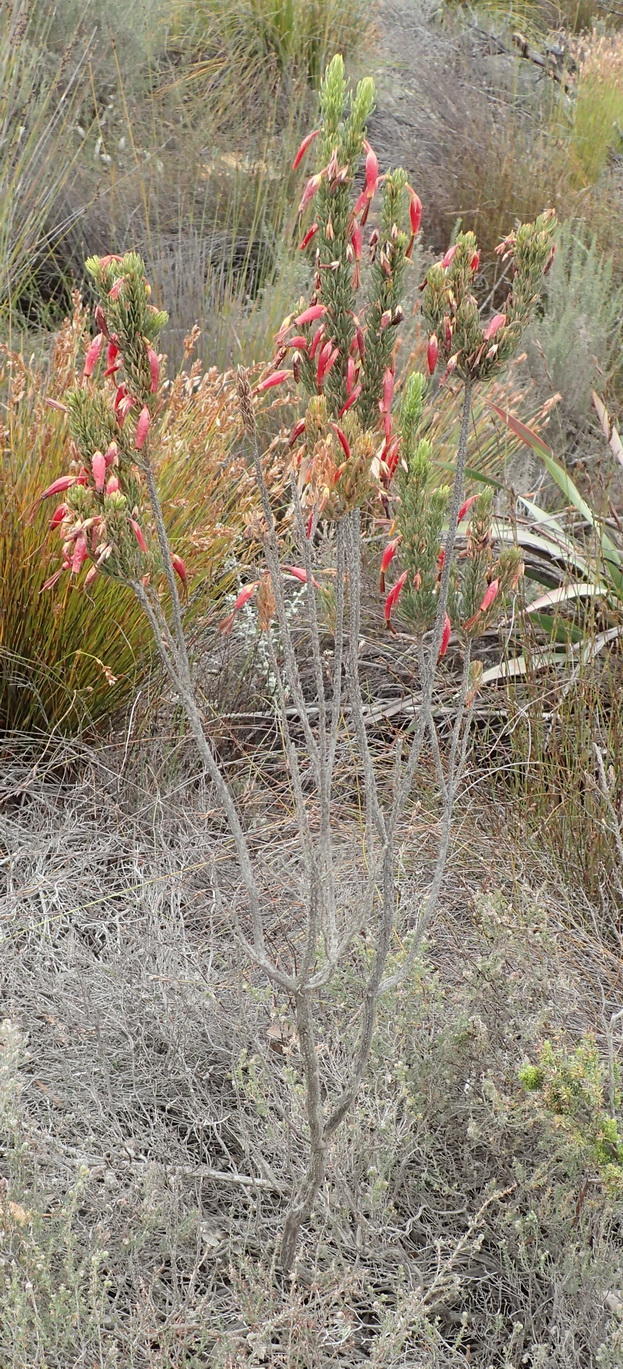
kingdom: Plantae
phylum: Tracheophyta
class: Magnoliopsida
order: Ericales
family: Ericaceae
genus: Erica
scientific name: Erica plukenetii
